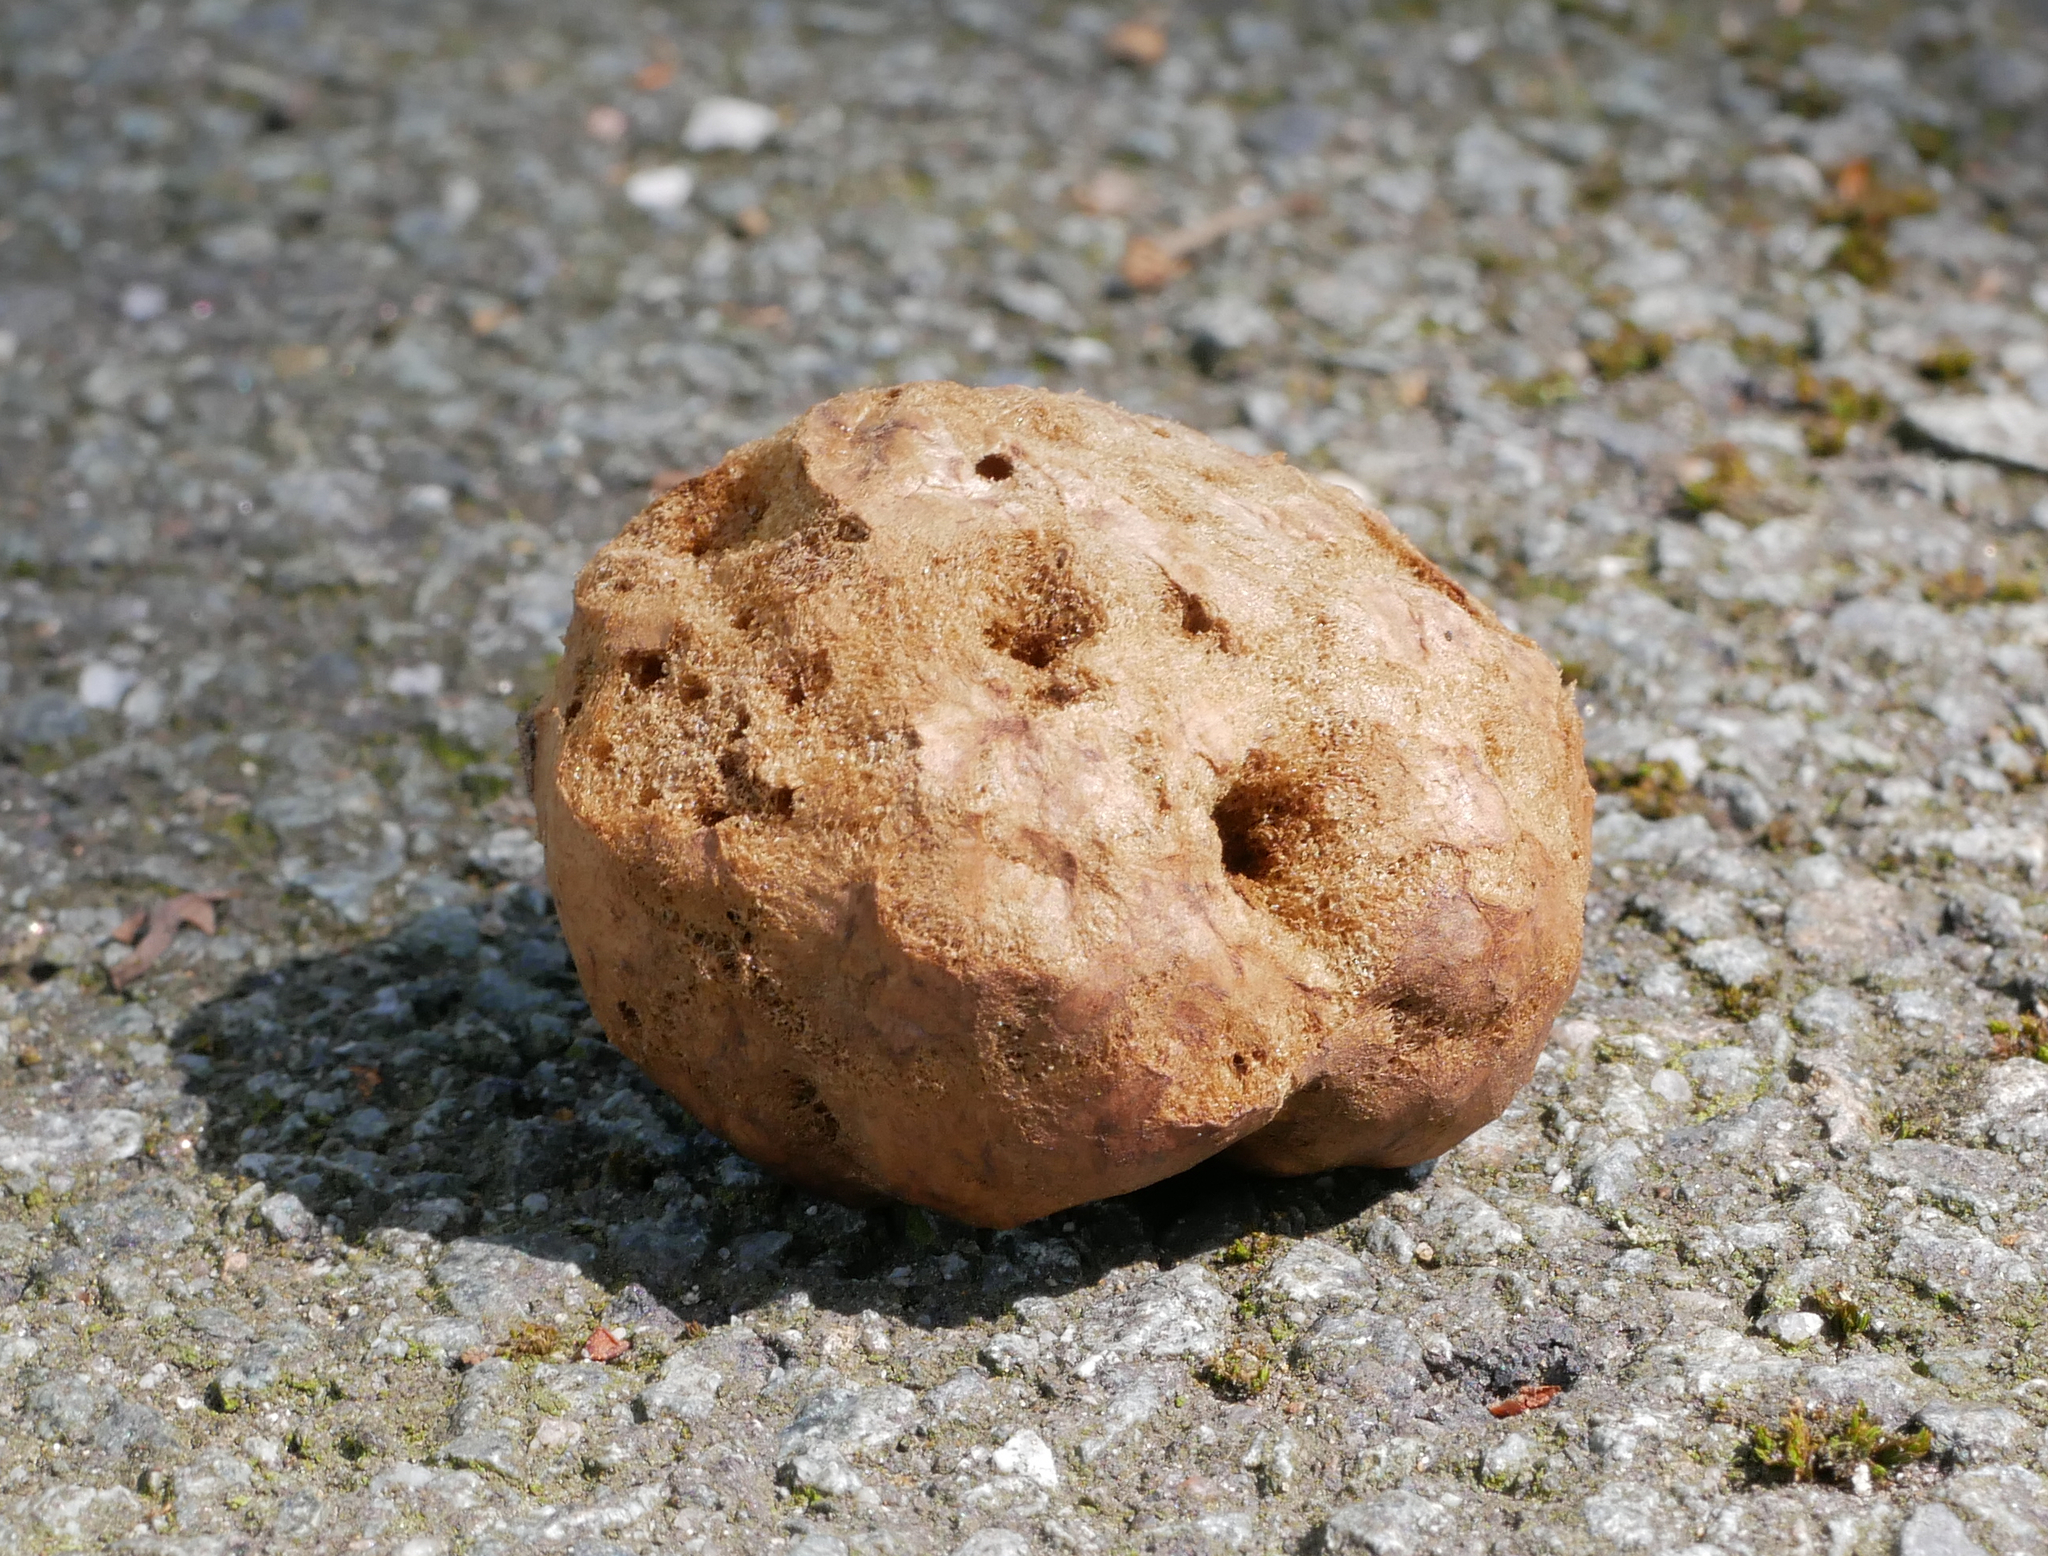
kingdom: Animalia
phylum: Arthropoda
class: Insecta
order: Hymenoptera
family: Cynipidae
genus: Biorhiza
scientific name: Biorhiza pallida
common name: Oak apple
